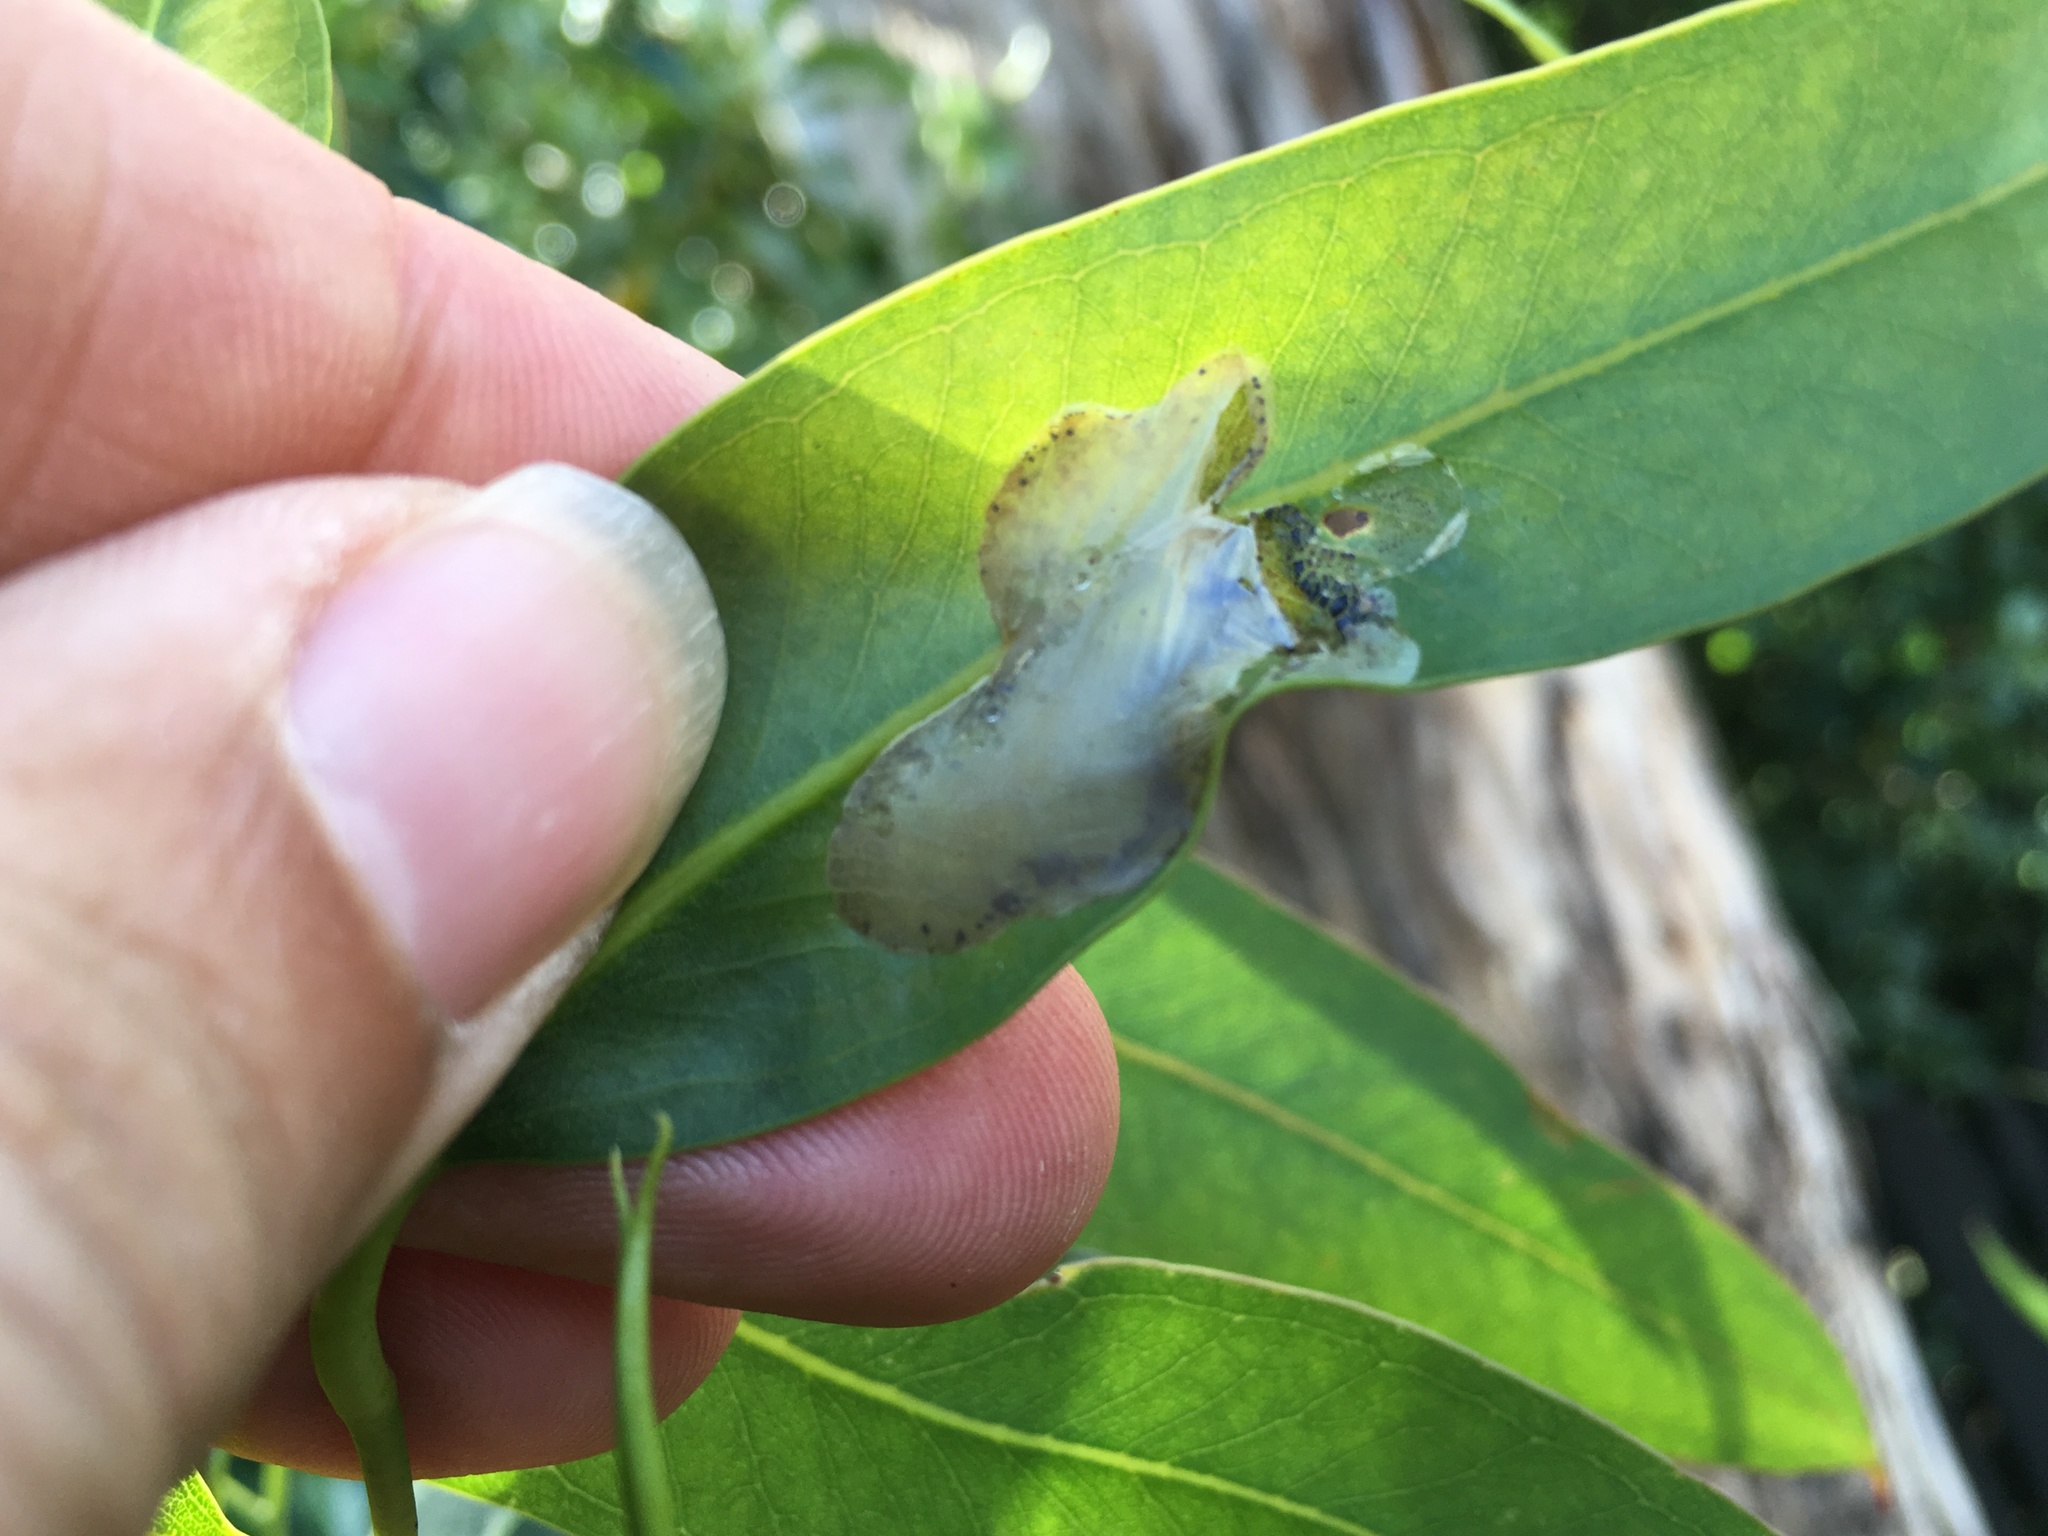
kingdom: Animalia
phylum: Arthropoda
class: Insecta
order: Hymenoptera
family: Pergidae
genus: Phylacteophaga
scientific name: Phylacteophaga froggatti
